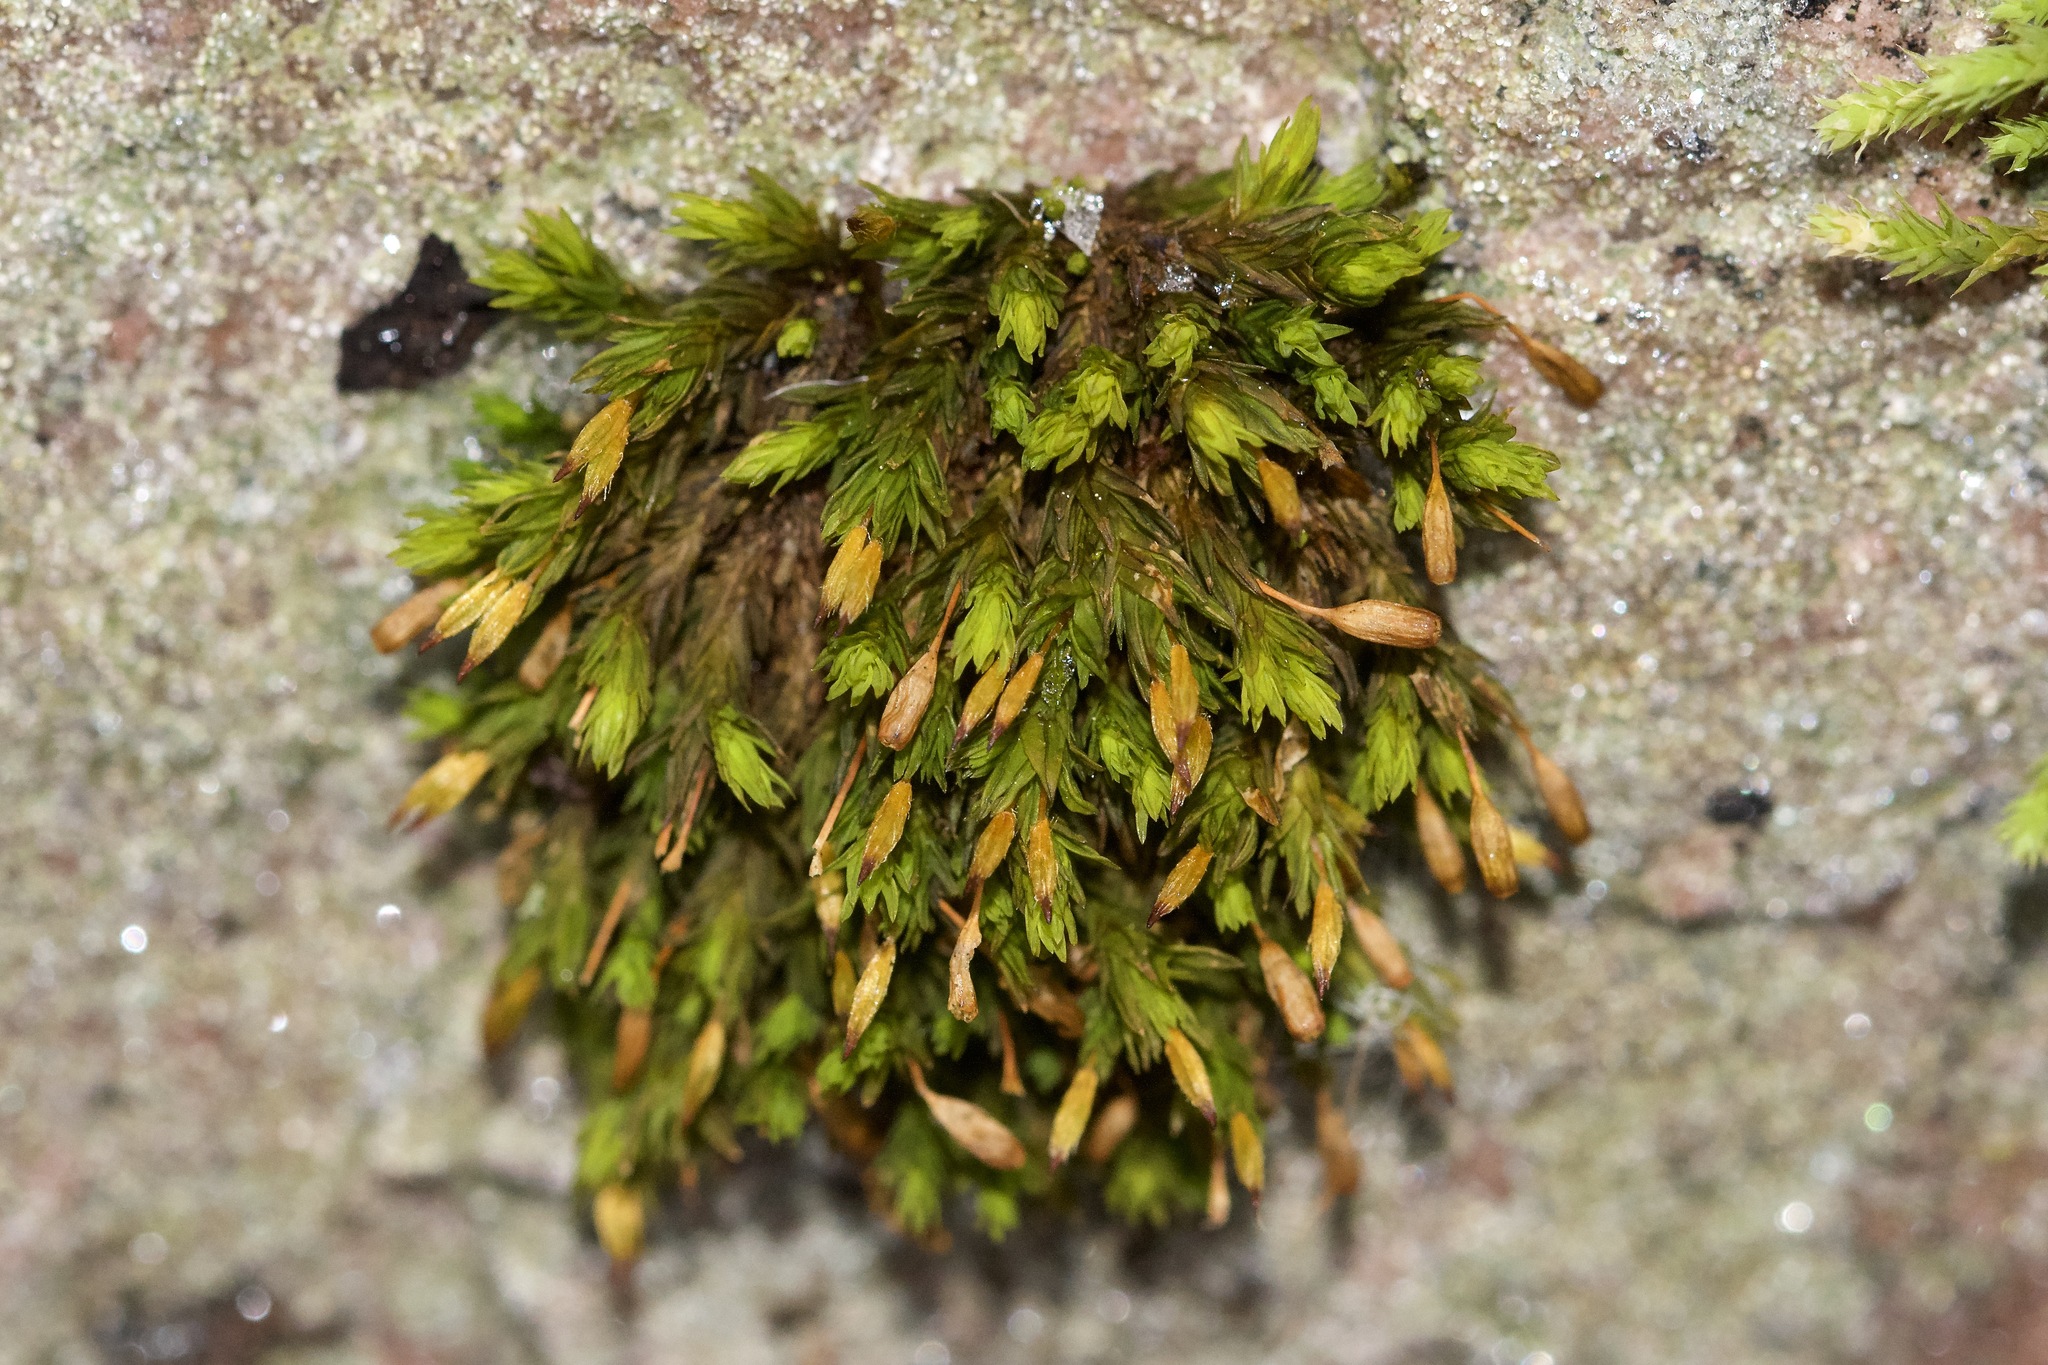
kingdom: Plantae
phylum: Bryophyta
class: Bryopsida
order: Orthotrichales
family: Orthotrichaceae
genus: Orthotrichum
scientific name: Orthotrichum anomalum
